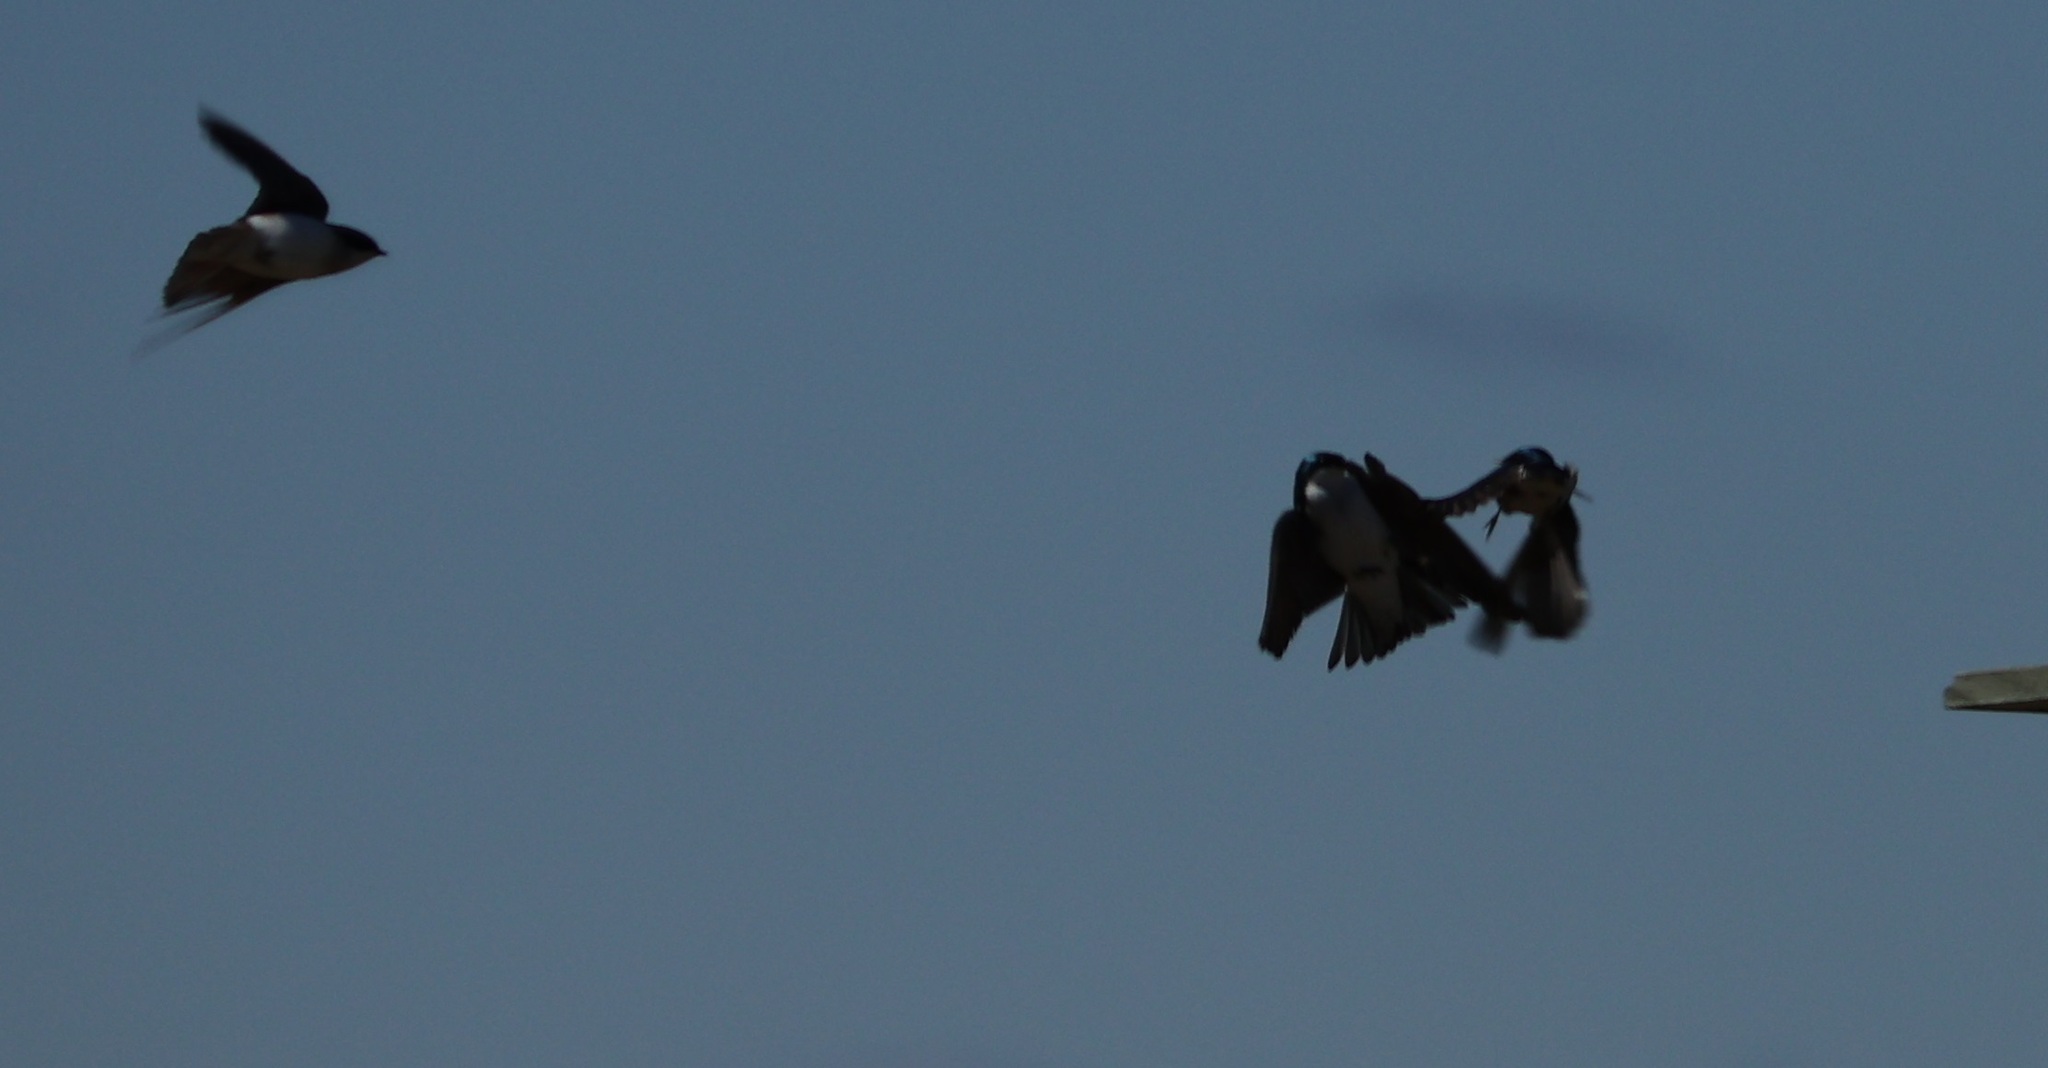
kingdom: Animalia
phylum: Chordata
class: Aves
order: Passeriformes
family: Hirundinidae
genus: Tachycineta
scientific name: Tachycineta bicolor
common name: Tree swallow
